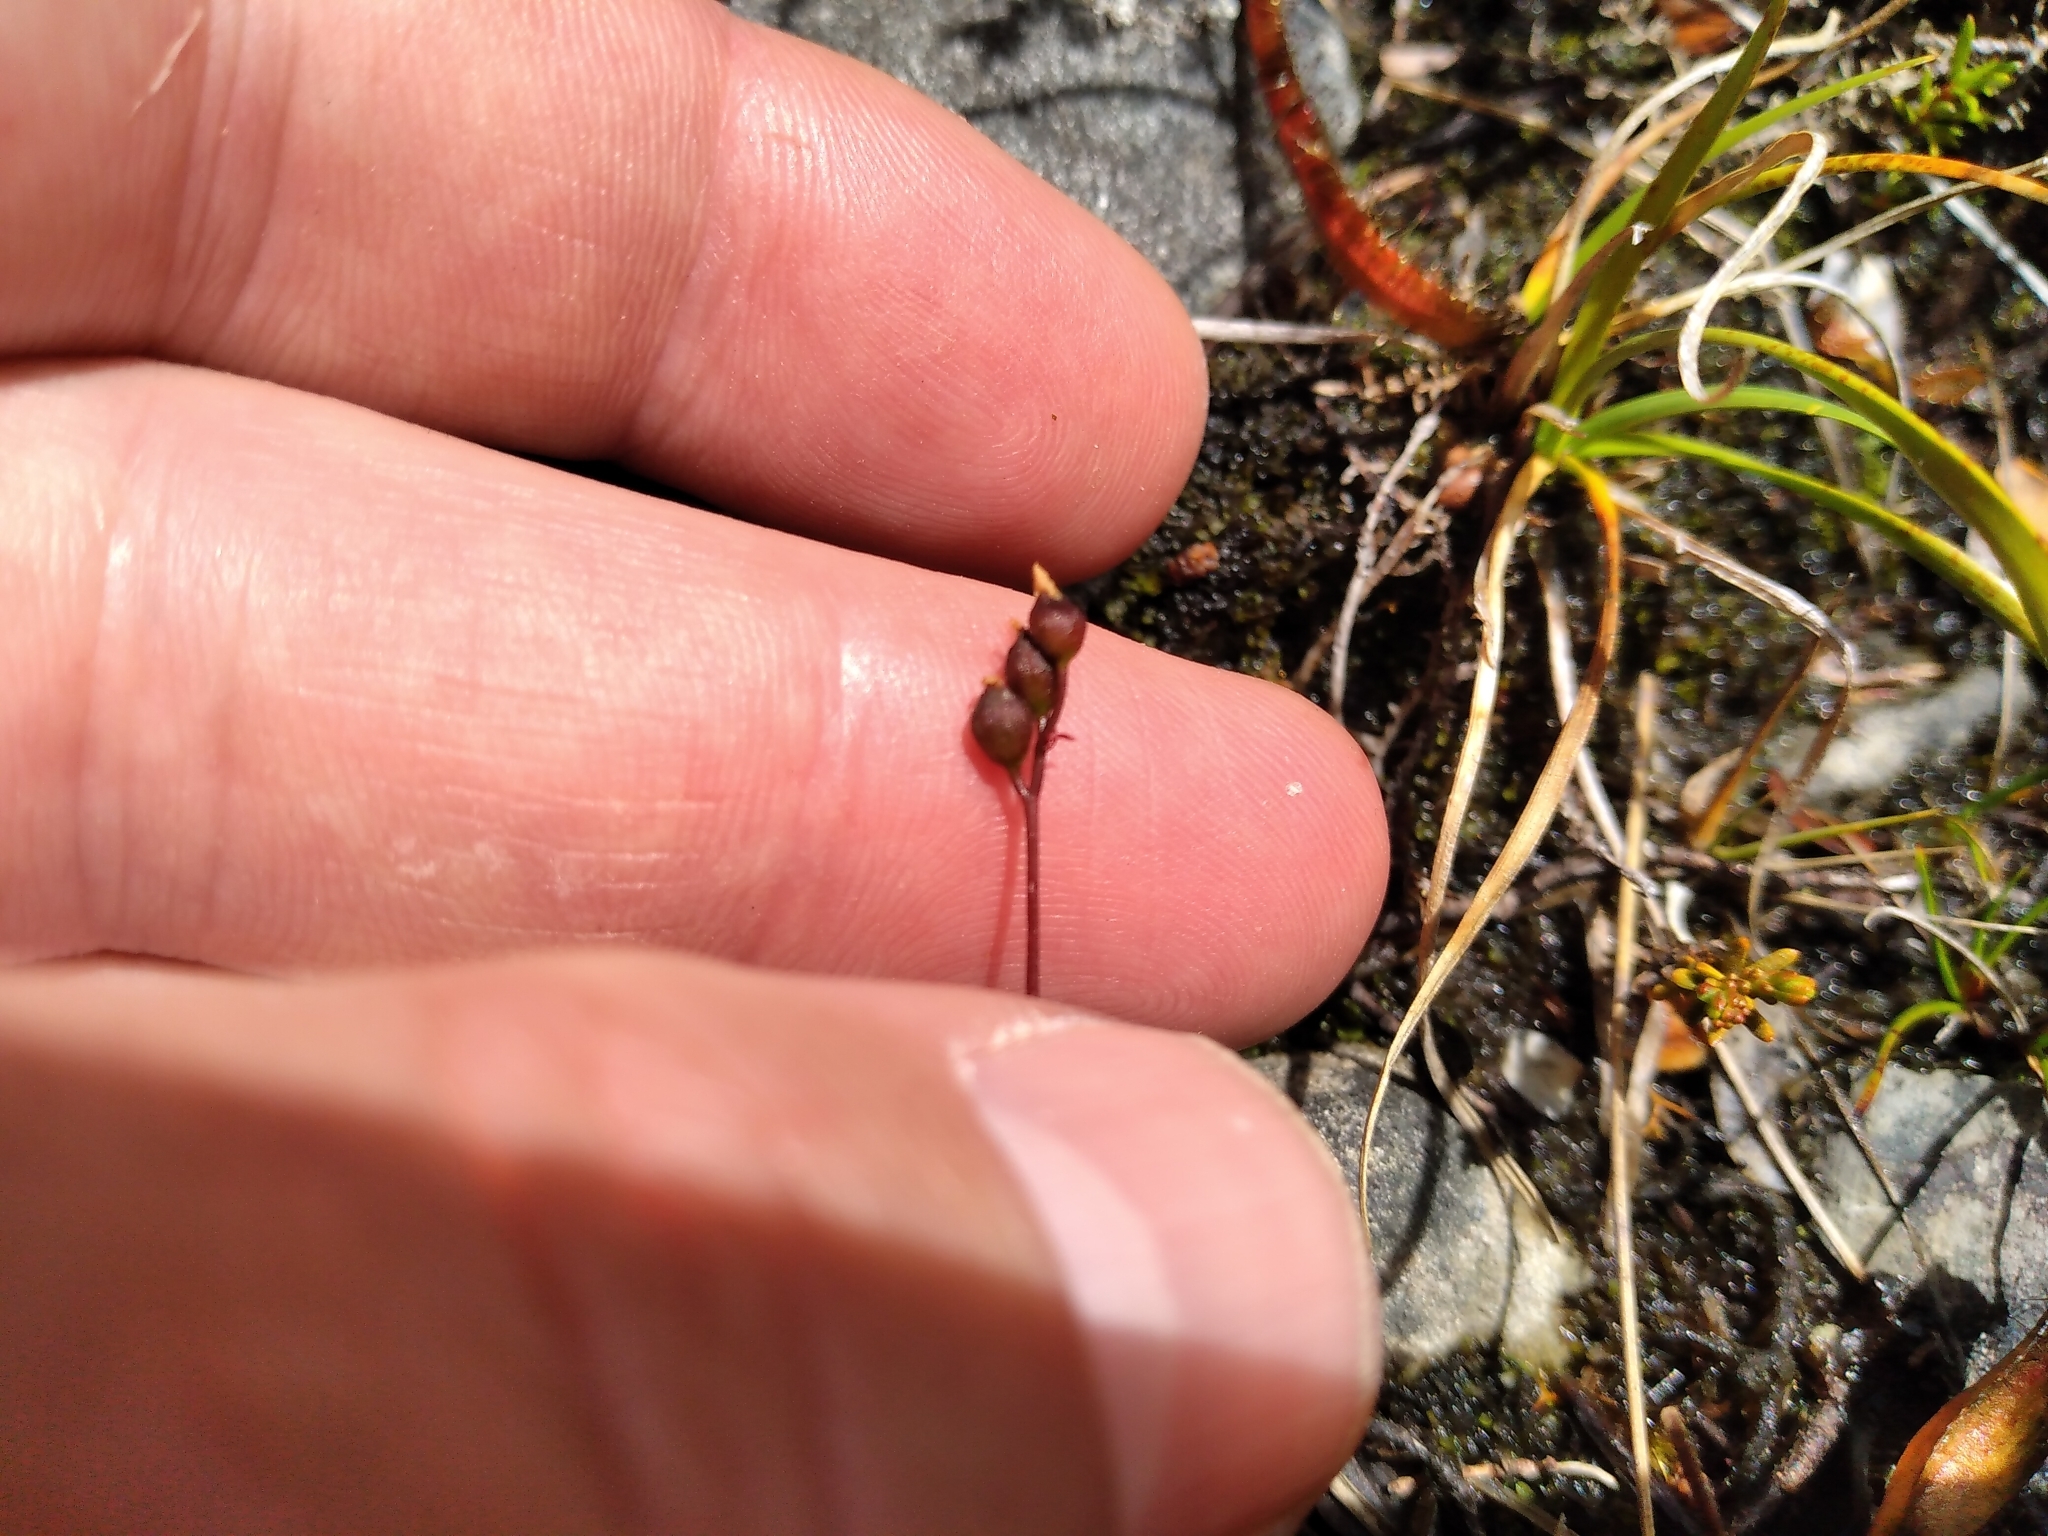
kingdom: Plantae
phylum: Tracheophyta
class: Magnoliopsida
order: Caryophyllales
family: Droseraceae
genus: Drosera
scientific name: Drosera spatulata
